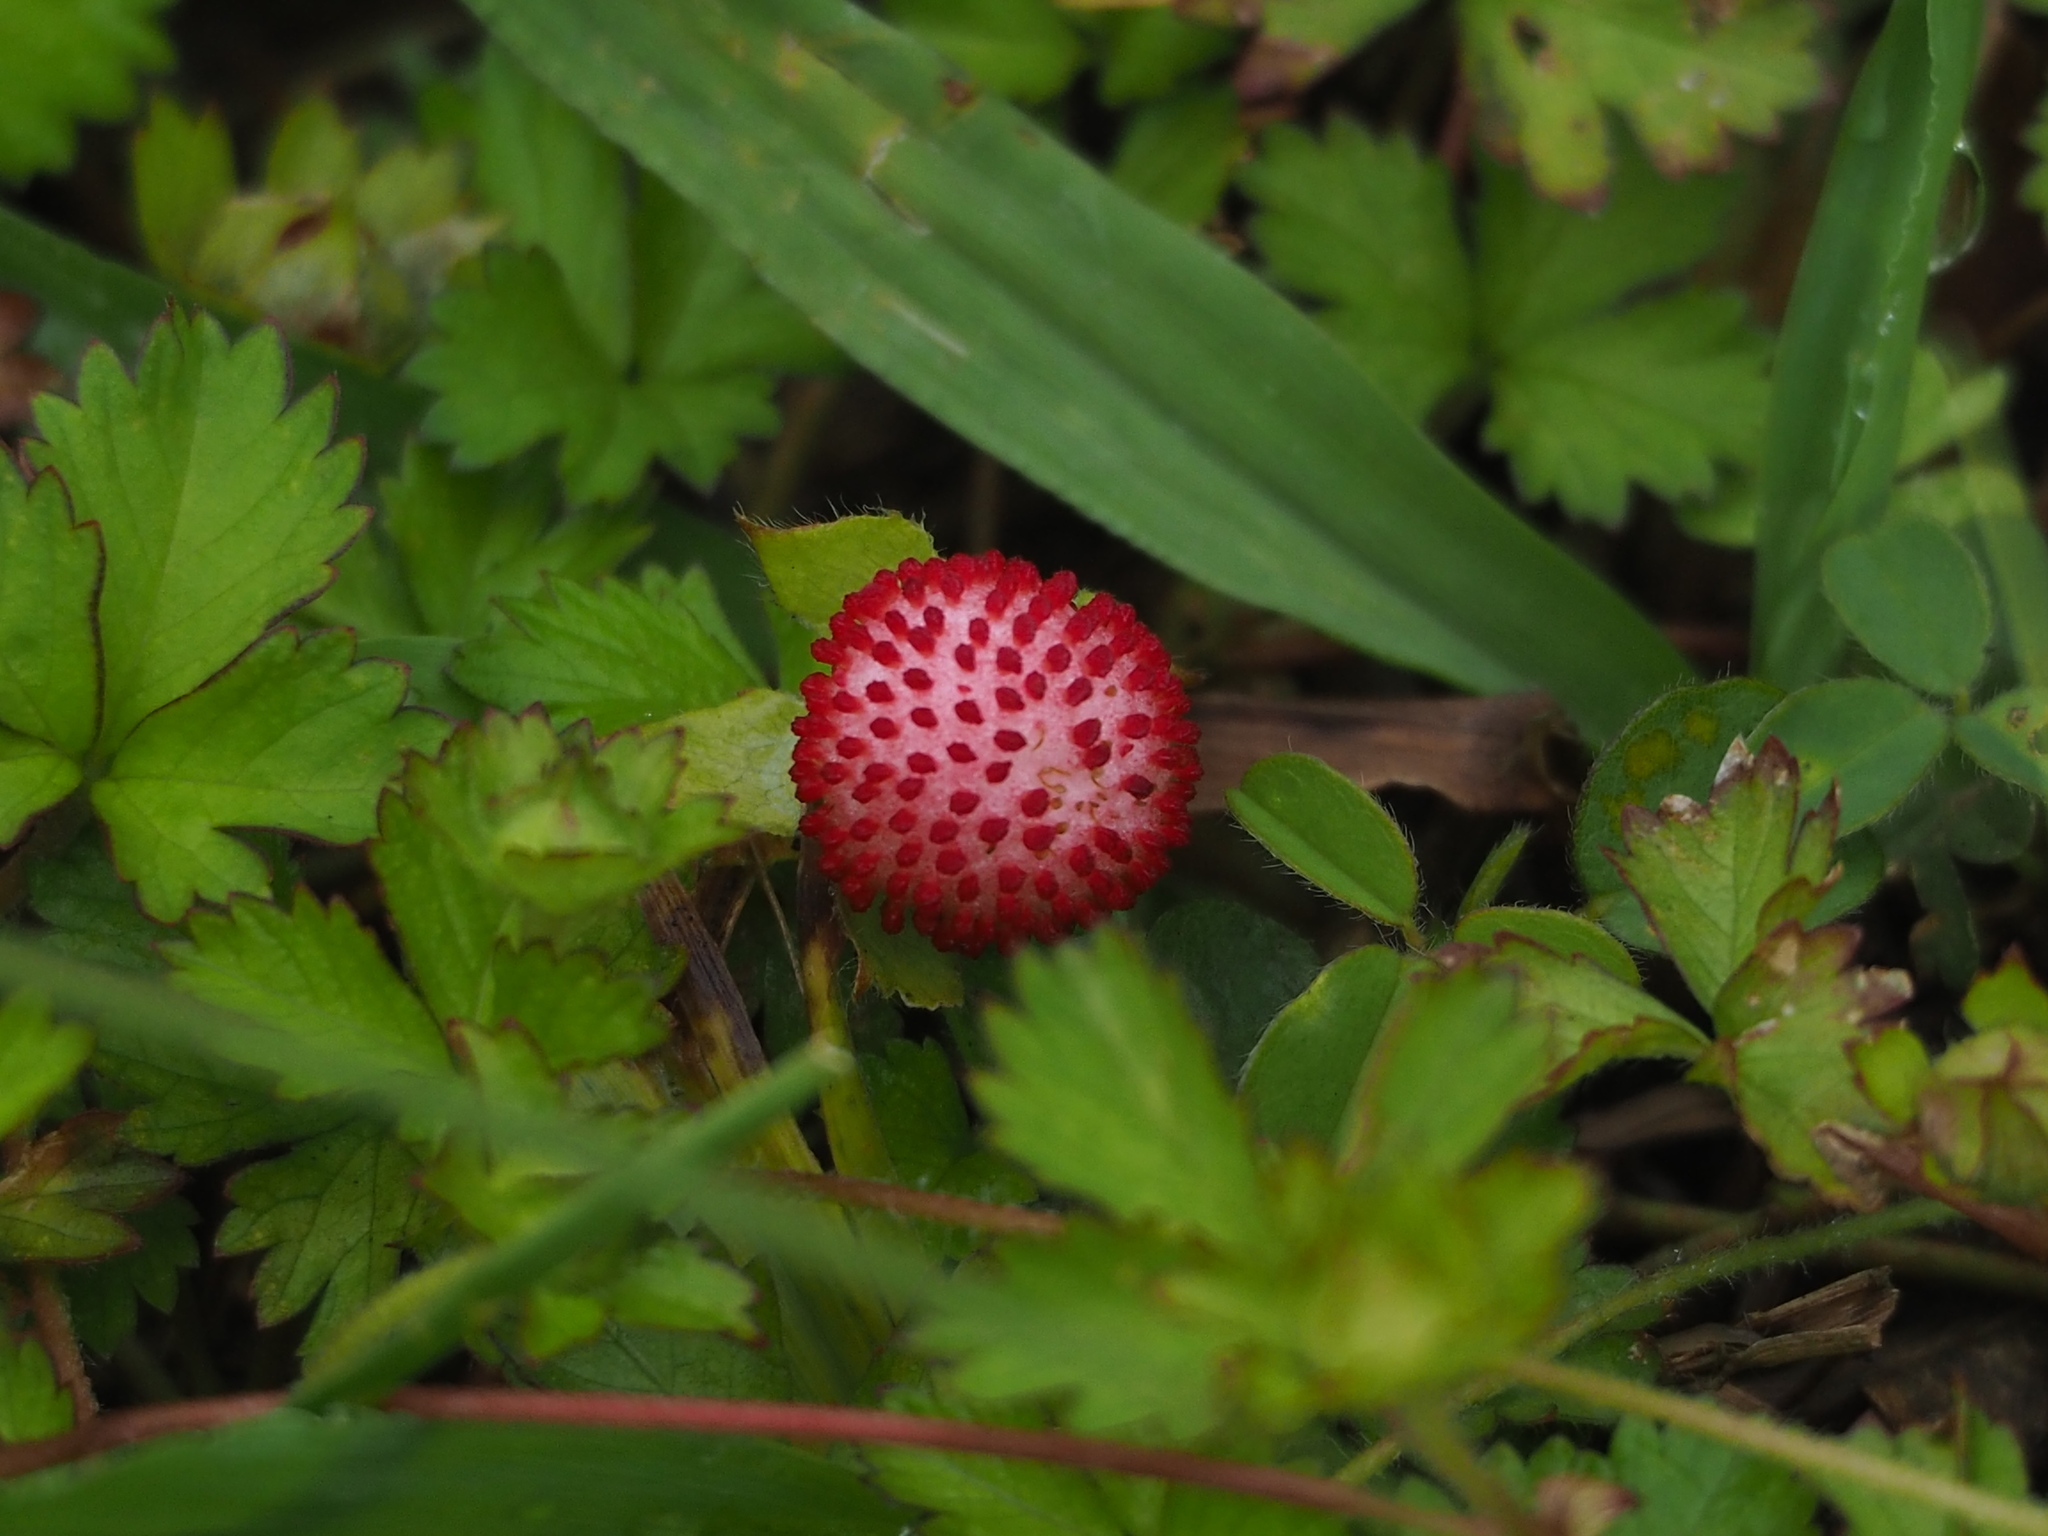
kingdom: Plantae
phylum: Tracheophyta
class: Magnoliopsida
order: Rosales
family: Rosaceae
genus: Potentilla
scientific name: Potentilla wallichiana
